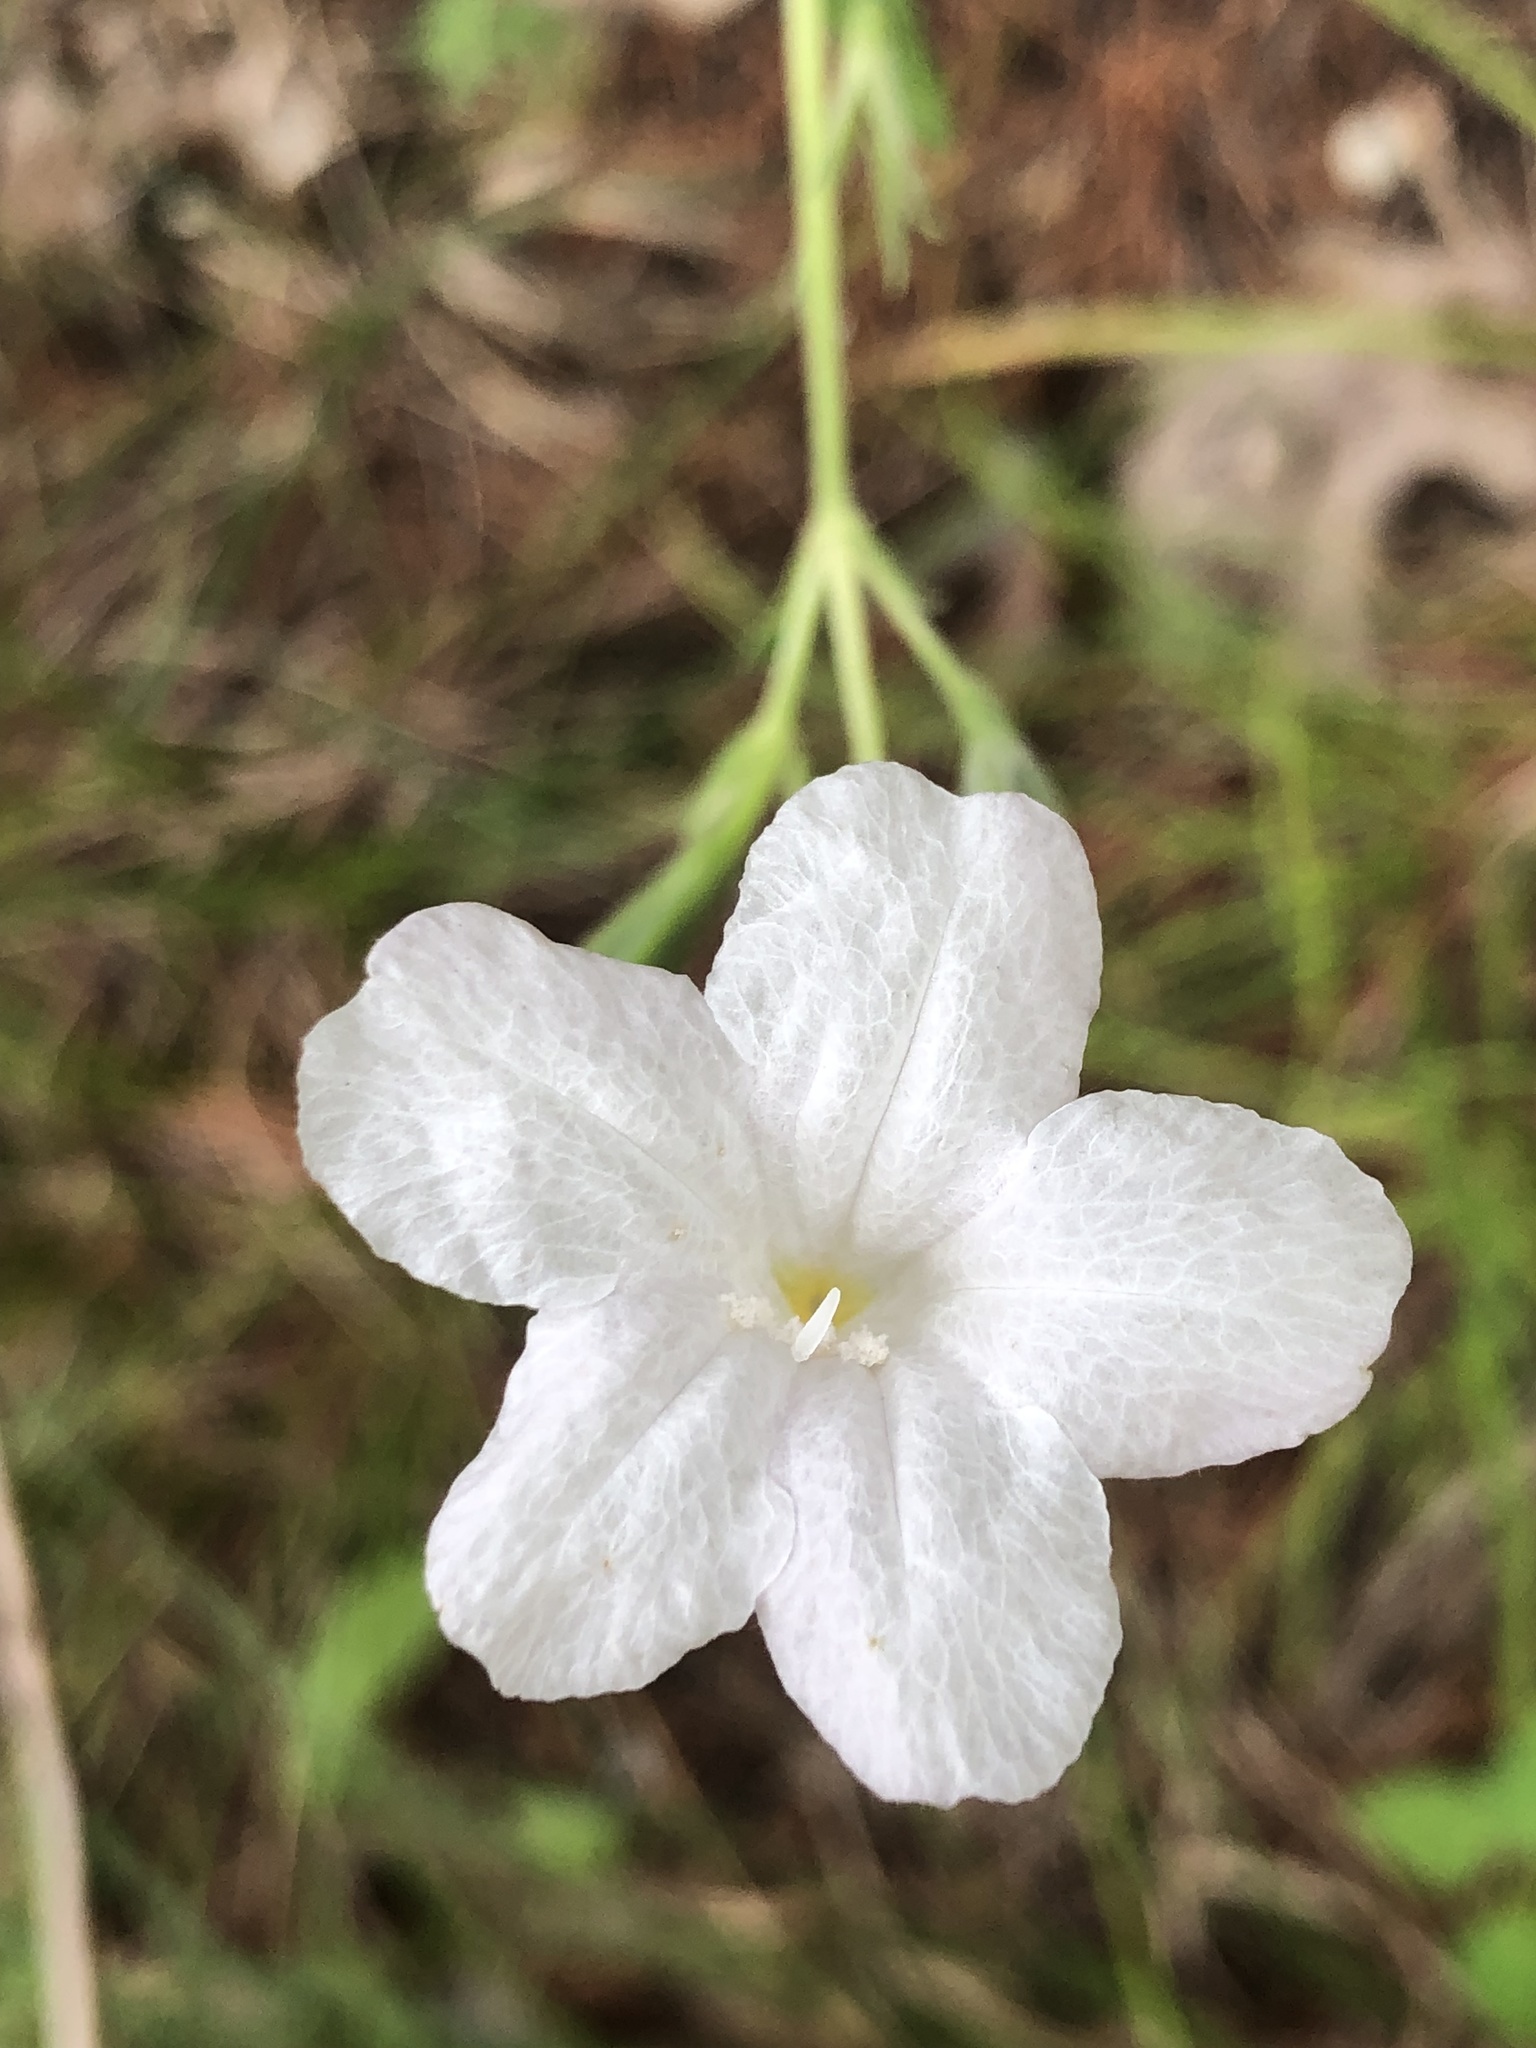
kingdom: Plantae
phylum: Tracheophyta
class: Magnoliopsida
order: Lamiales
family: Acanthaceae
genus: Ruellia
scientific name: Ruellia metziae
